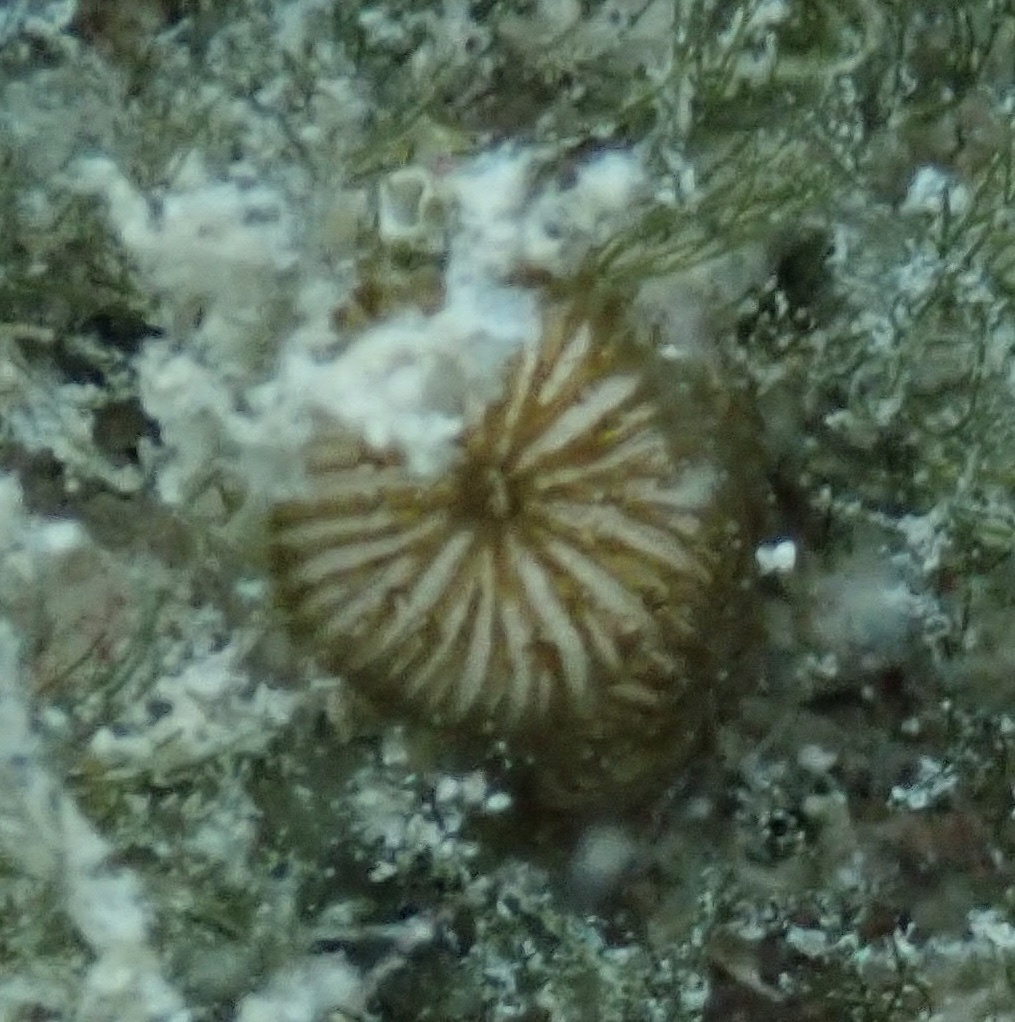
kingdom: Animalia
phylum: Cnidaria
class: Anthozoa
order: Scleractinia
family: Rhizangiidae
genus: Siderastrea
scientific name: Siderastrea radians
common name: Lesser starlet coral
